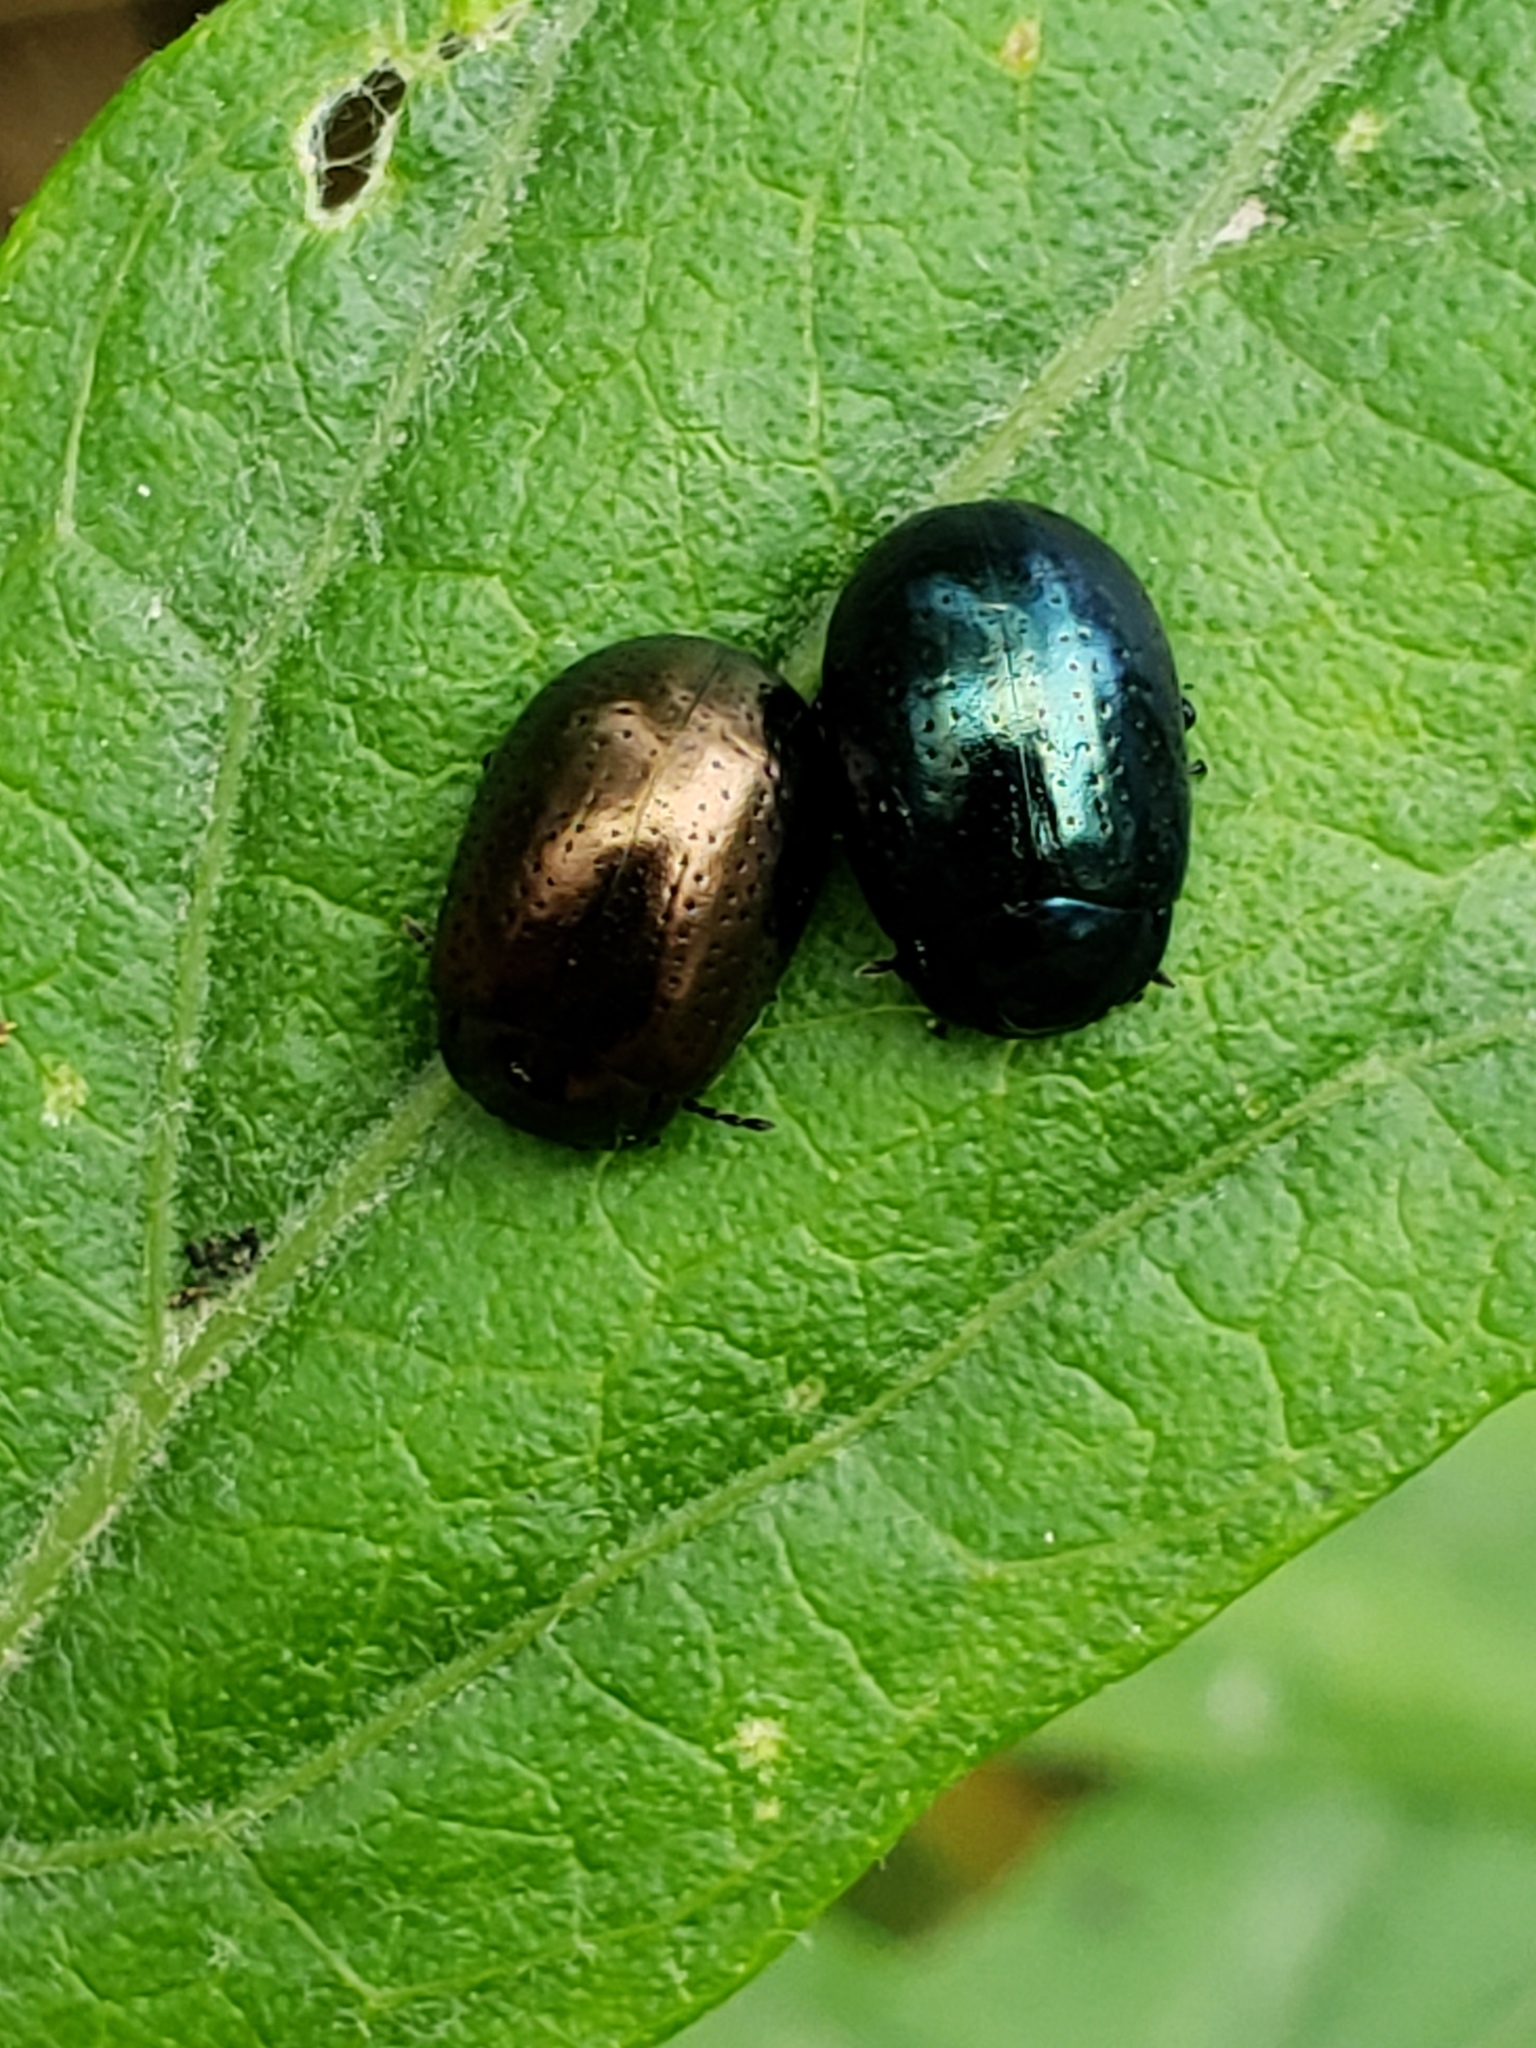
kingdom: Animalia
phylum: Arthropoda
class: Insecta
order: Coleoptera
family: Chrysomelidae
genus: Chrysolina
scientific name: Chrysolina hyperici
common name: St. johnswort beetle
